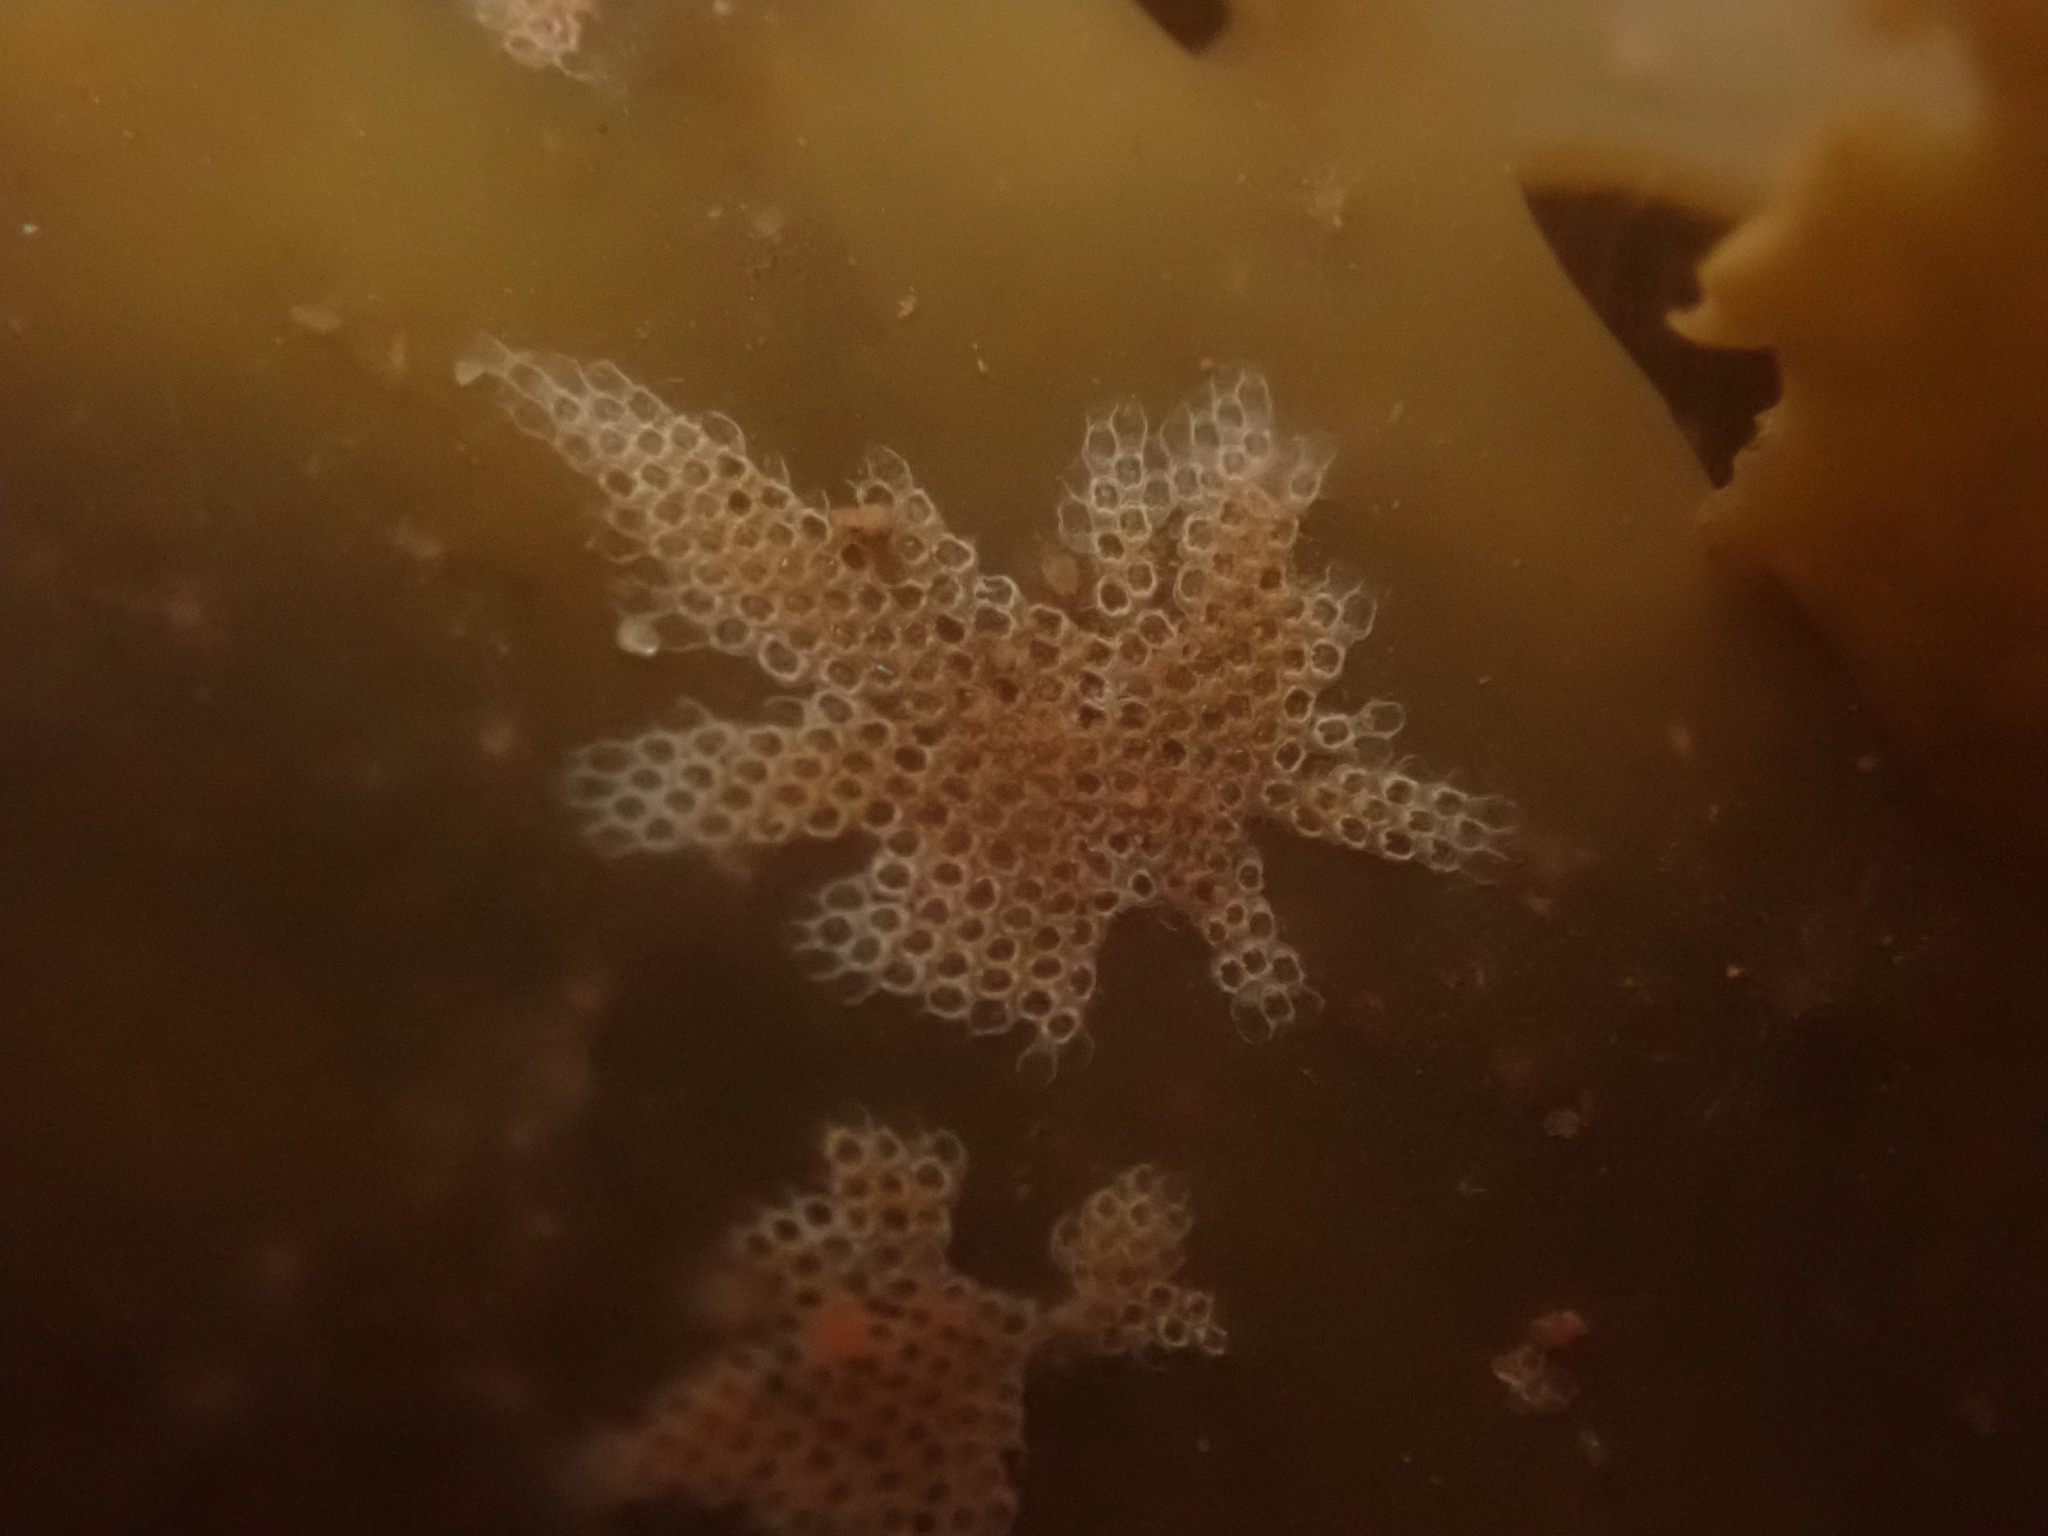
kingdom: Animalia
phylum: Bryozoa
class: Gymnolaemata
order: Cheilostomatida
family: Electridae
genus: Electra
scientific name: Electra pilosa
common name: Hairy sea-mat
